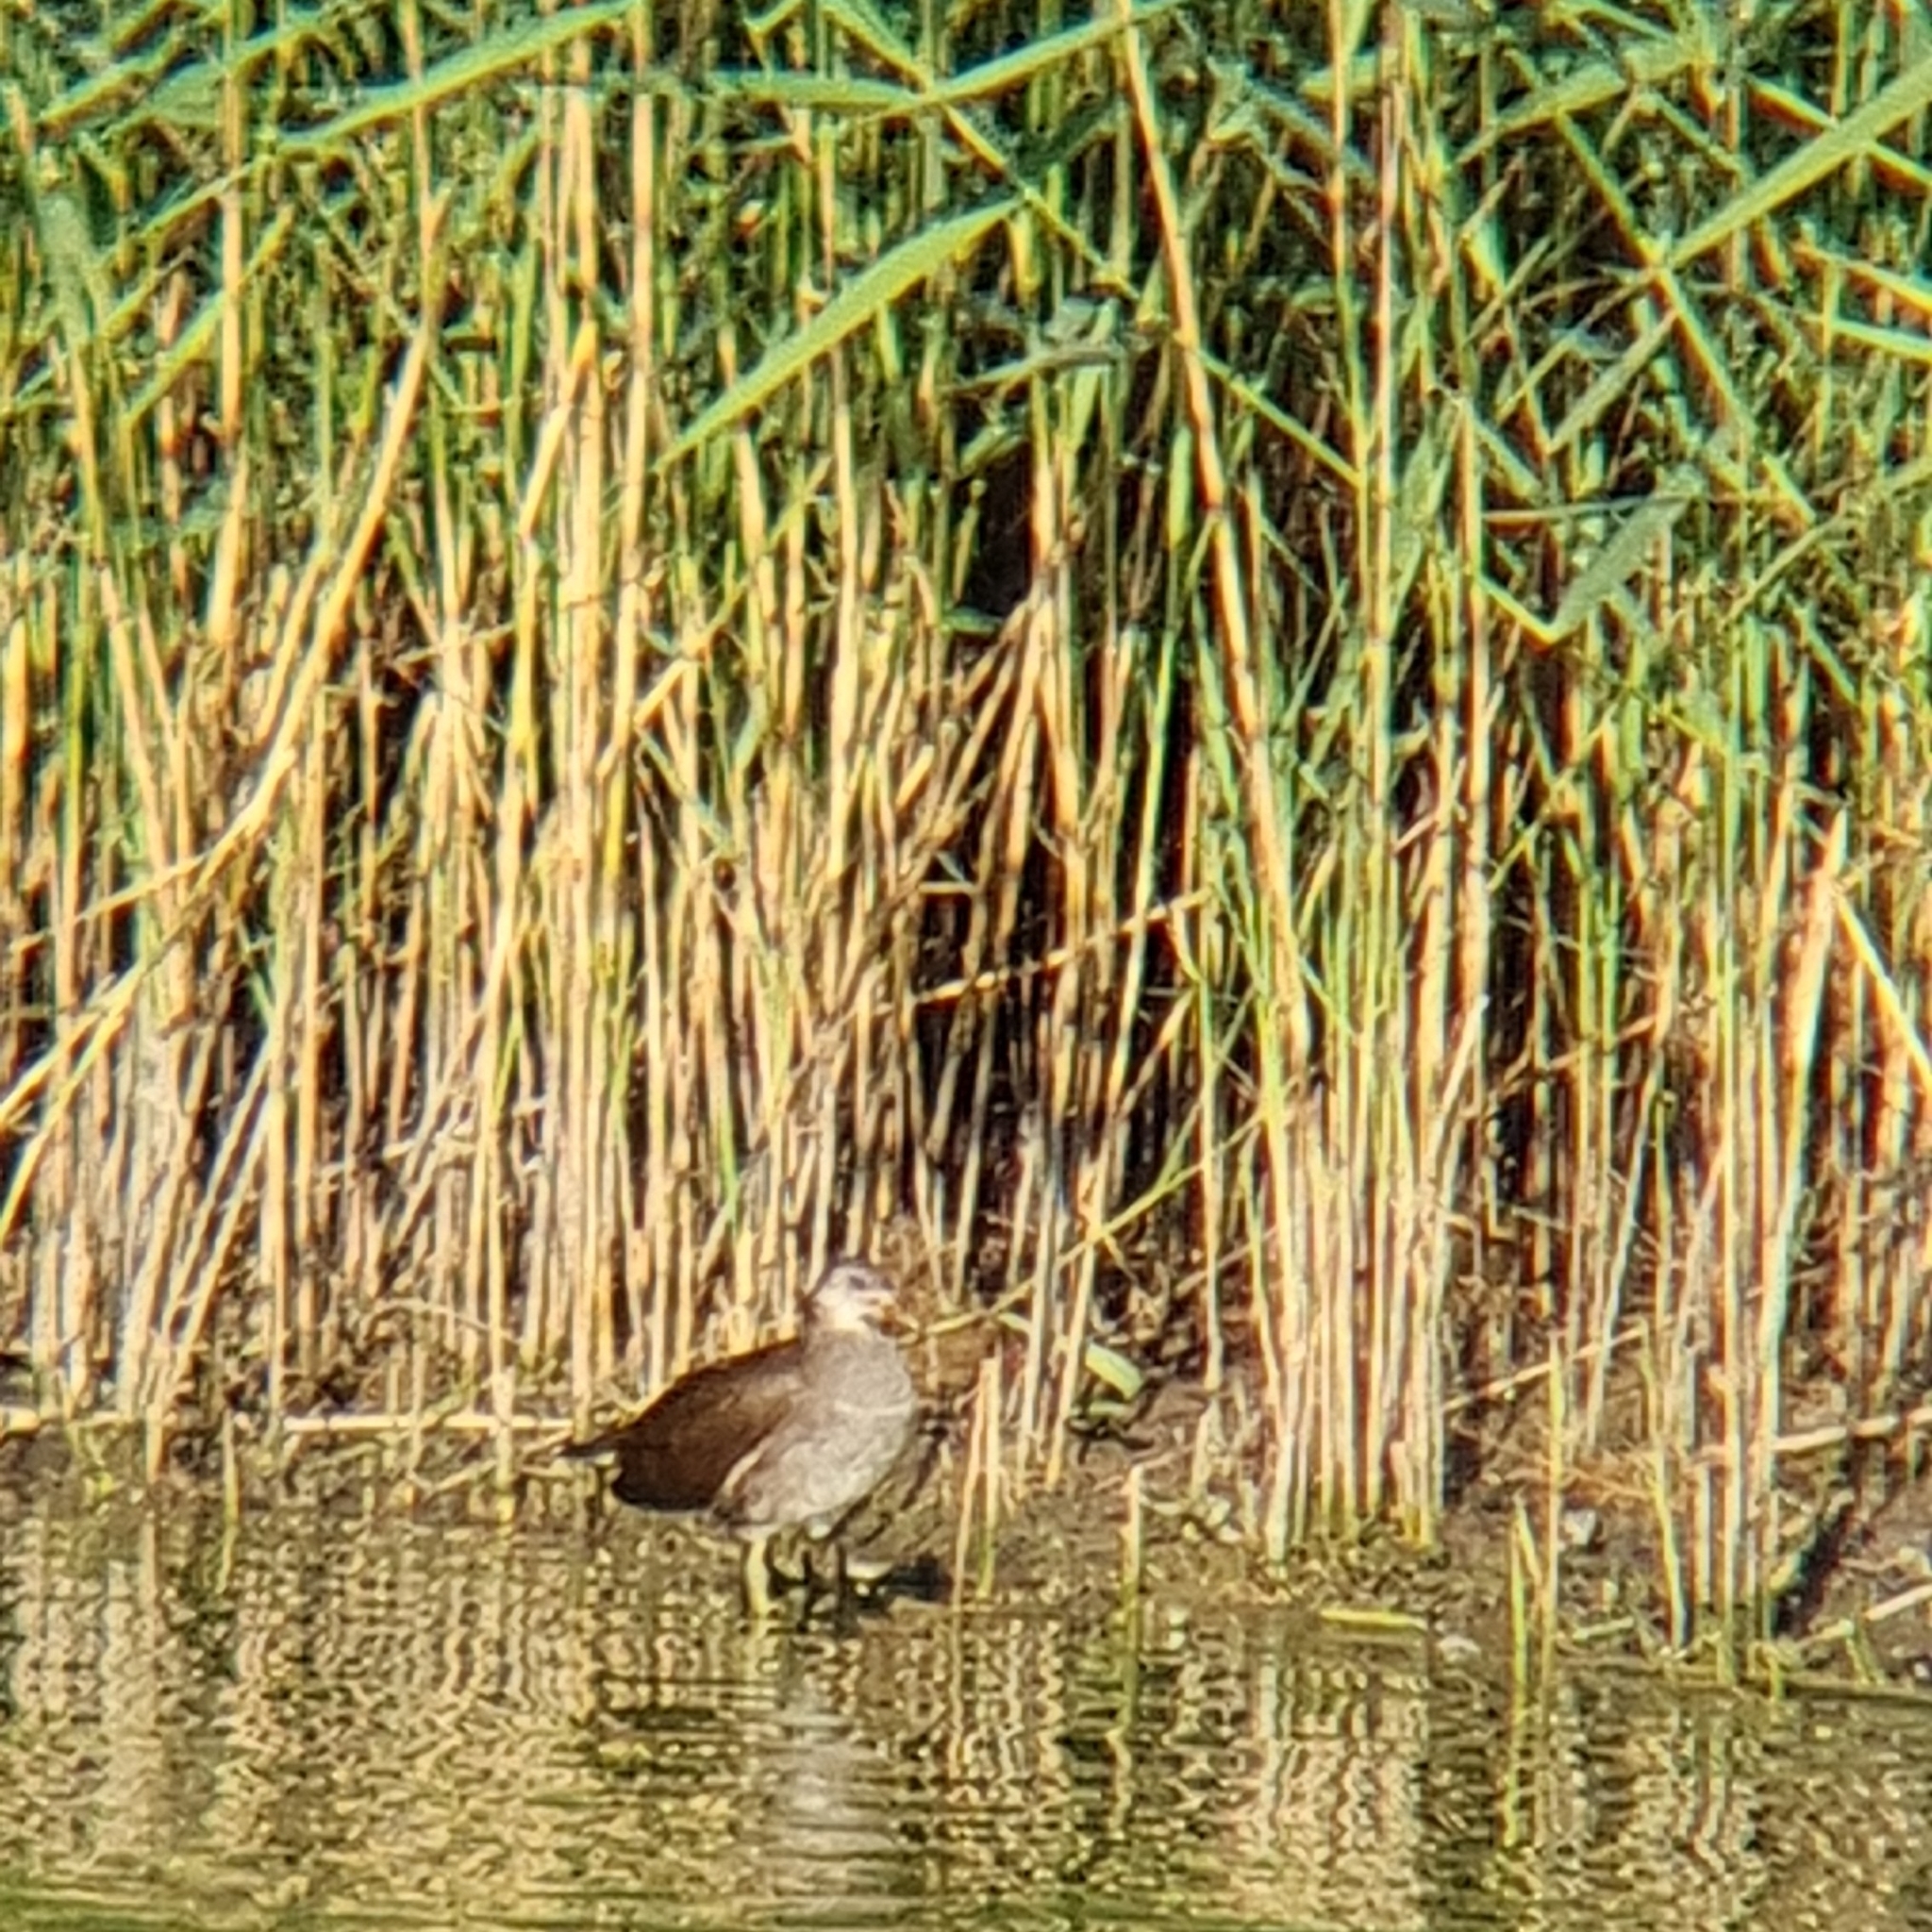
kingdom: Animalia
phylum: Chordata
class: Aves
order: Gruiformes
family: Rallidae
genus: Gallinula
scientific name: Gallinula chloropus
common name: Common moorhen
